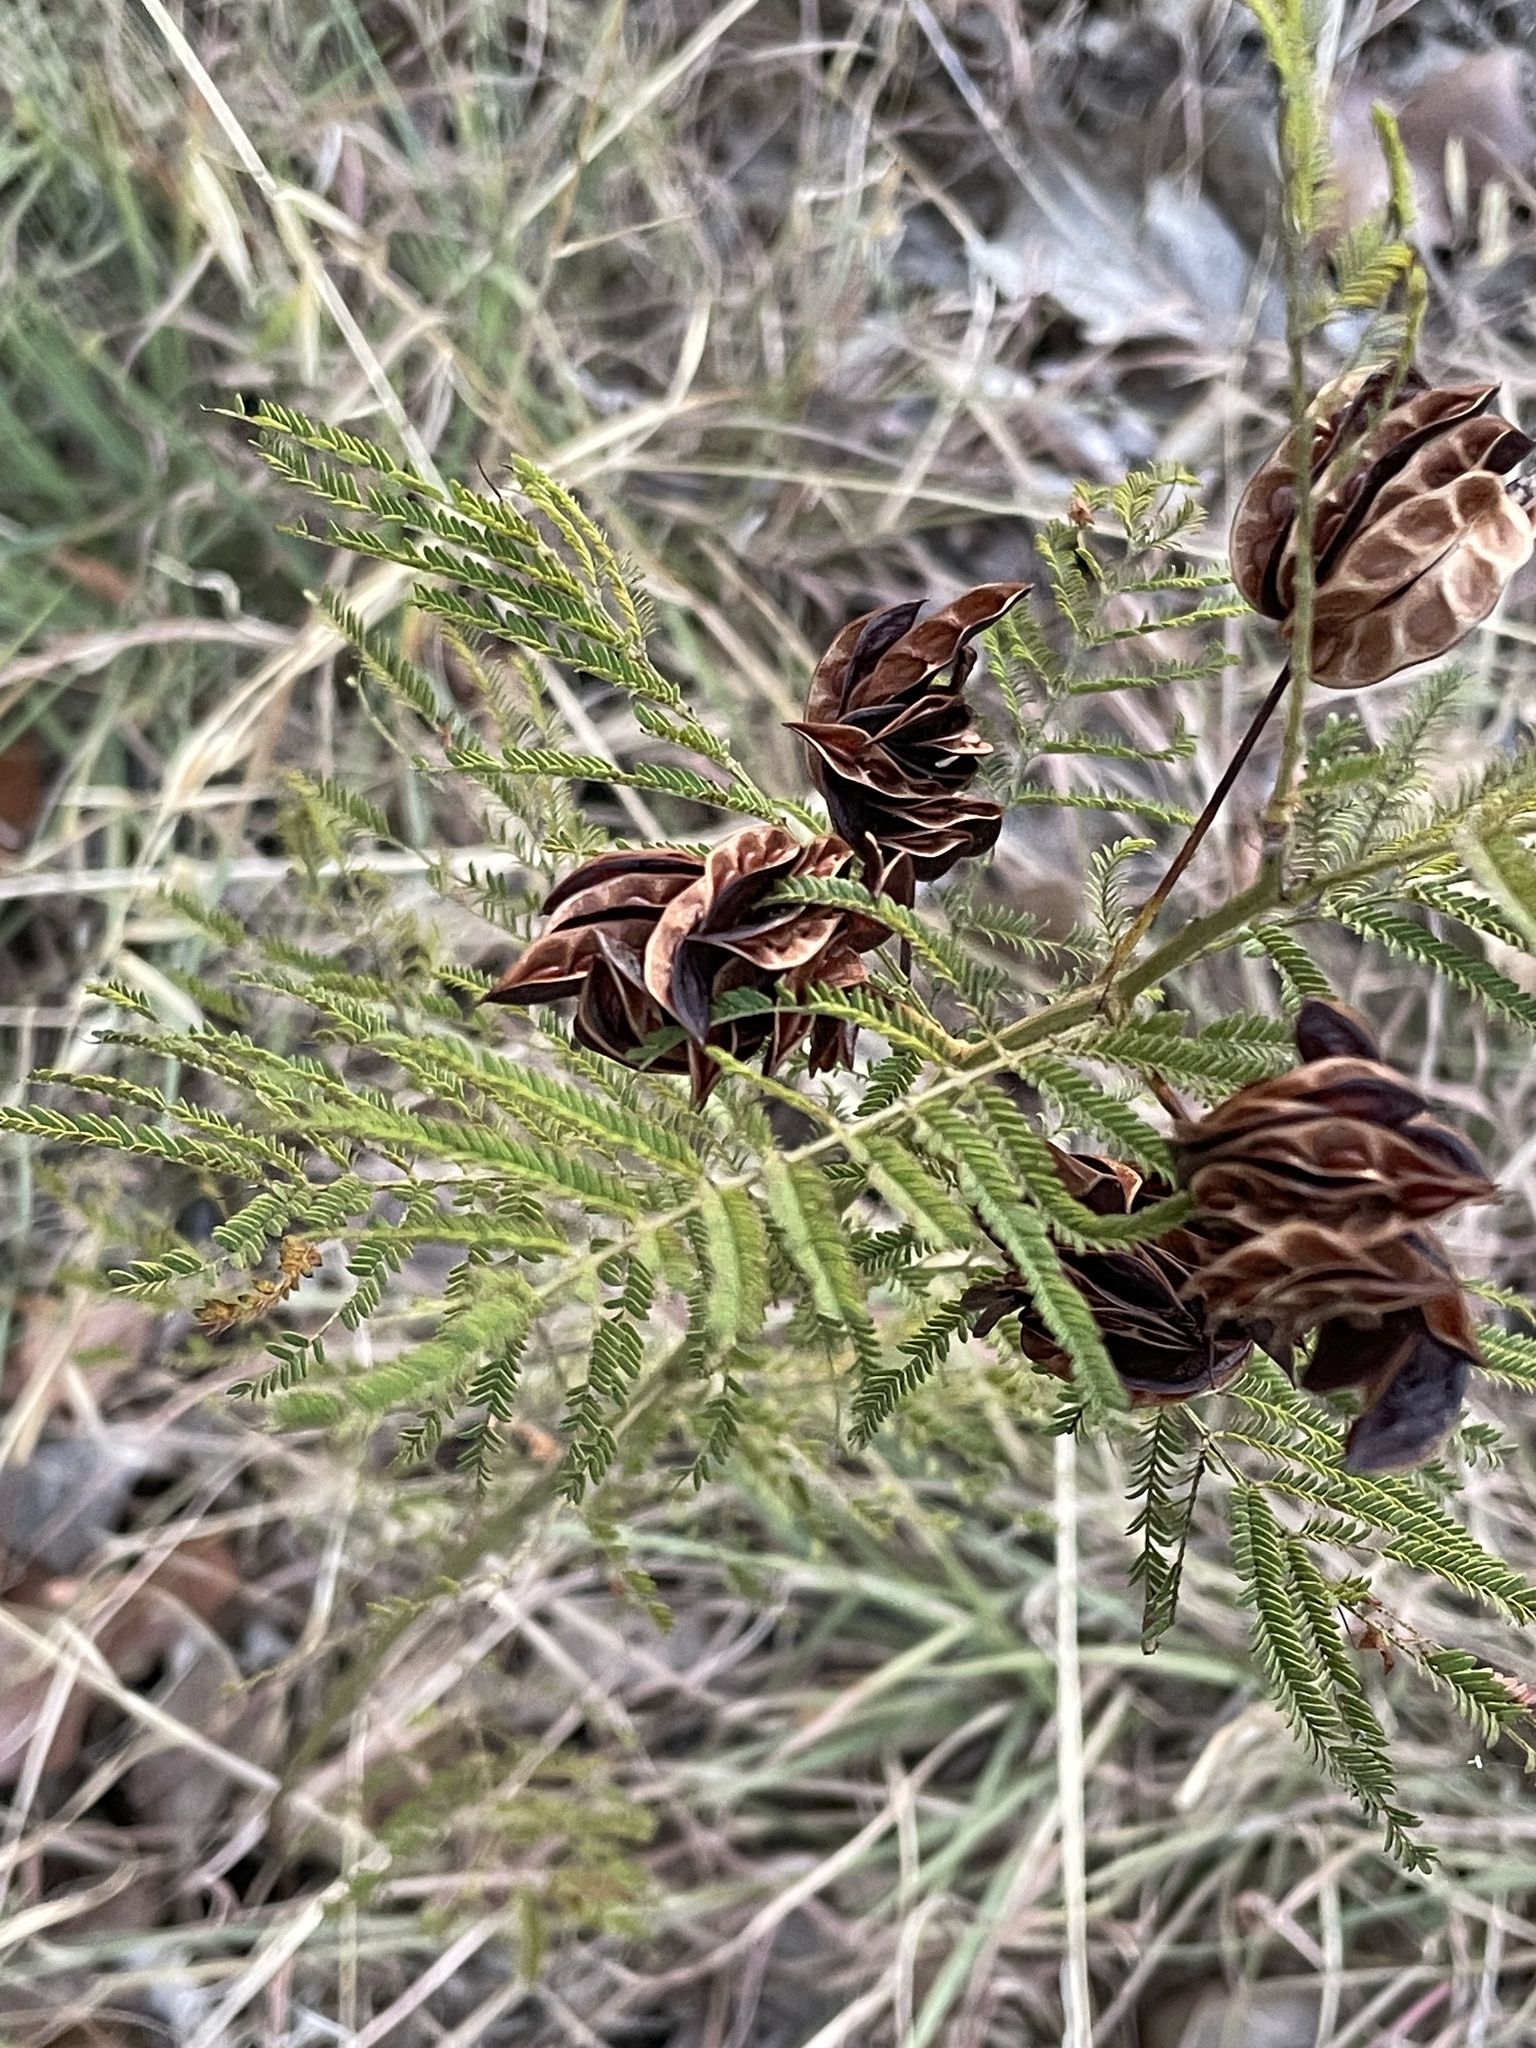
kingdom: Plantae
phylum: Tracheophyta
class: Magnoliopsida
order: Fabales
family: Fabaceae
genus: Desmanthus
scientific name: Desmanthus illinoensis
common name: Illinois bundle-flower
